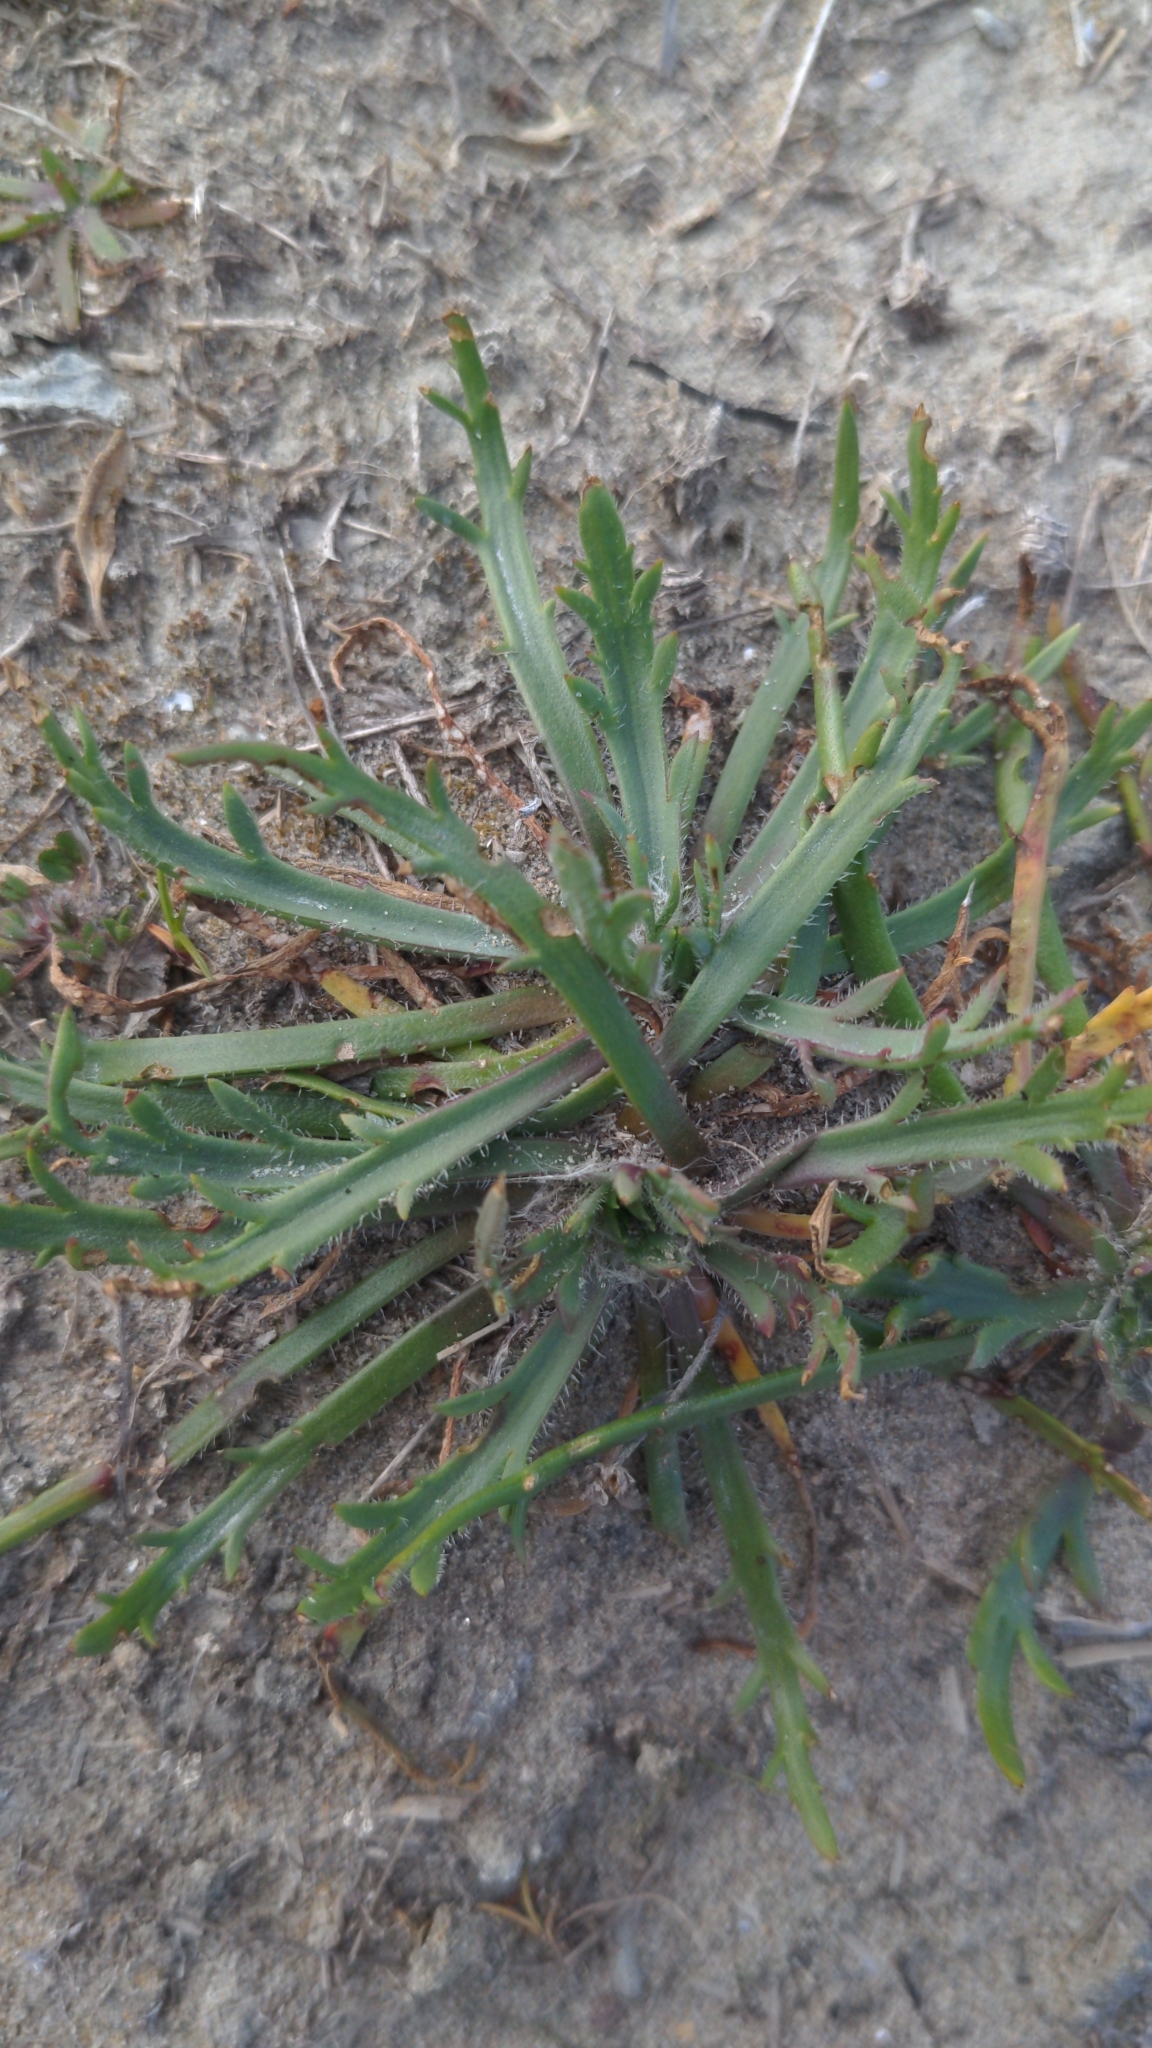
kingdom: Plantae
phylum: Tracheophyta
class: Magnoliopsida
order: Lamiales
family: Plantaginaceae
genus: Plantago
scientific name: Plantago coronopus
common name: Buck's-horn plantain
